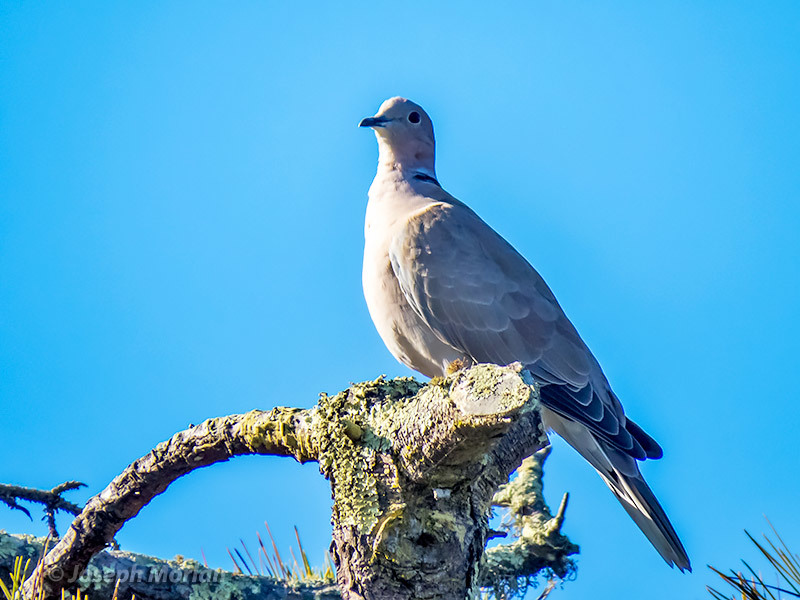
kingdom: Animalia
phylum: Chordata
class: Aves
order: Columbiformes
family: Columbidae
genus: Streptopelia
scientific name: Streptopelia decaocto
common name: Eurasian collared dove
